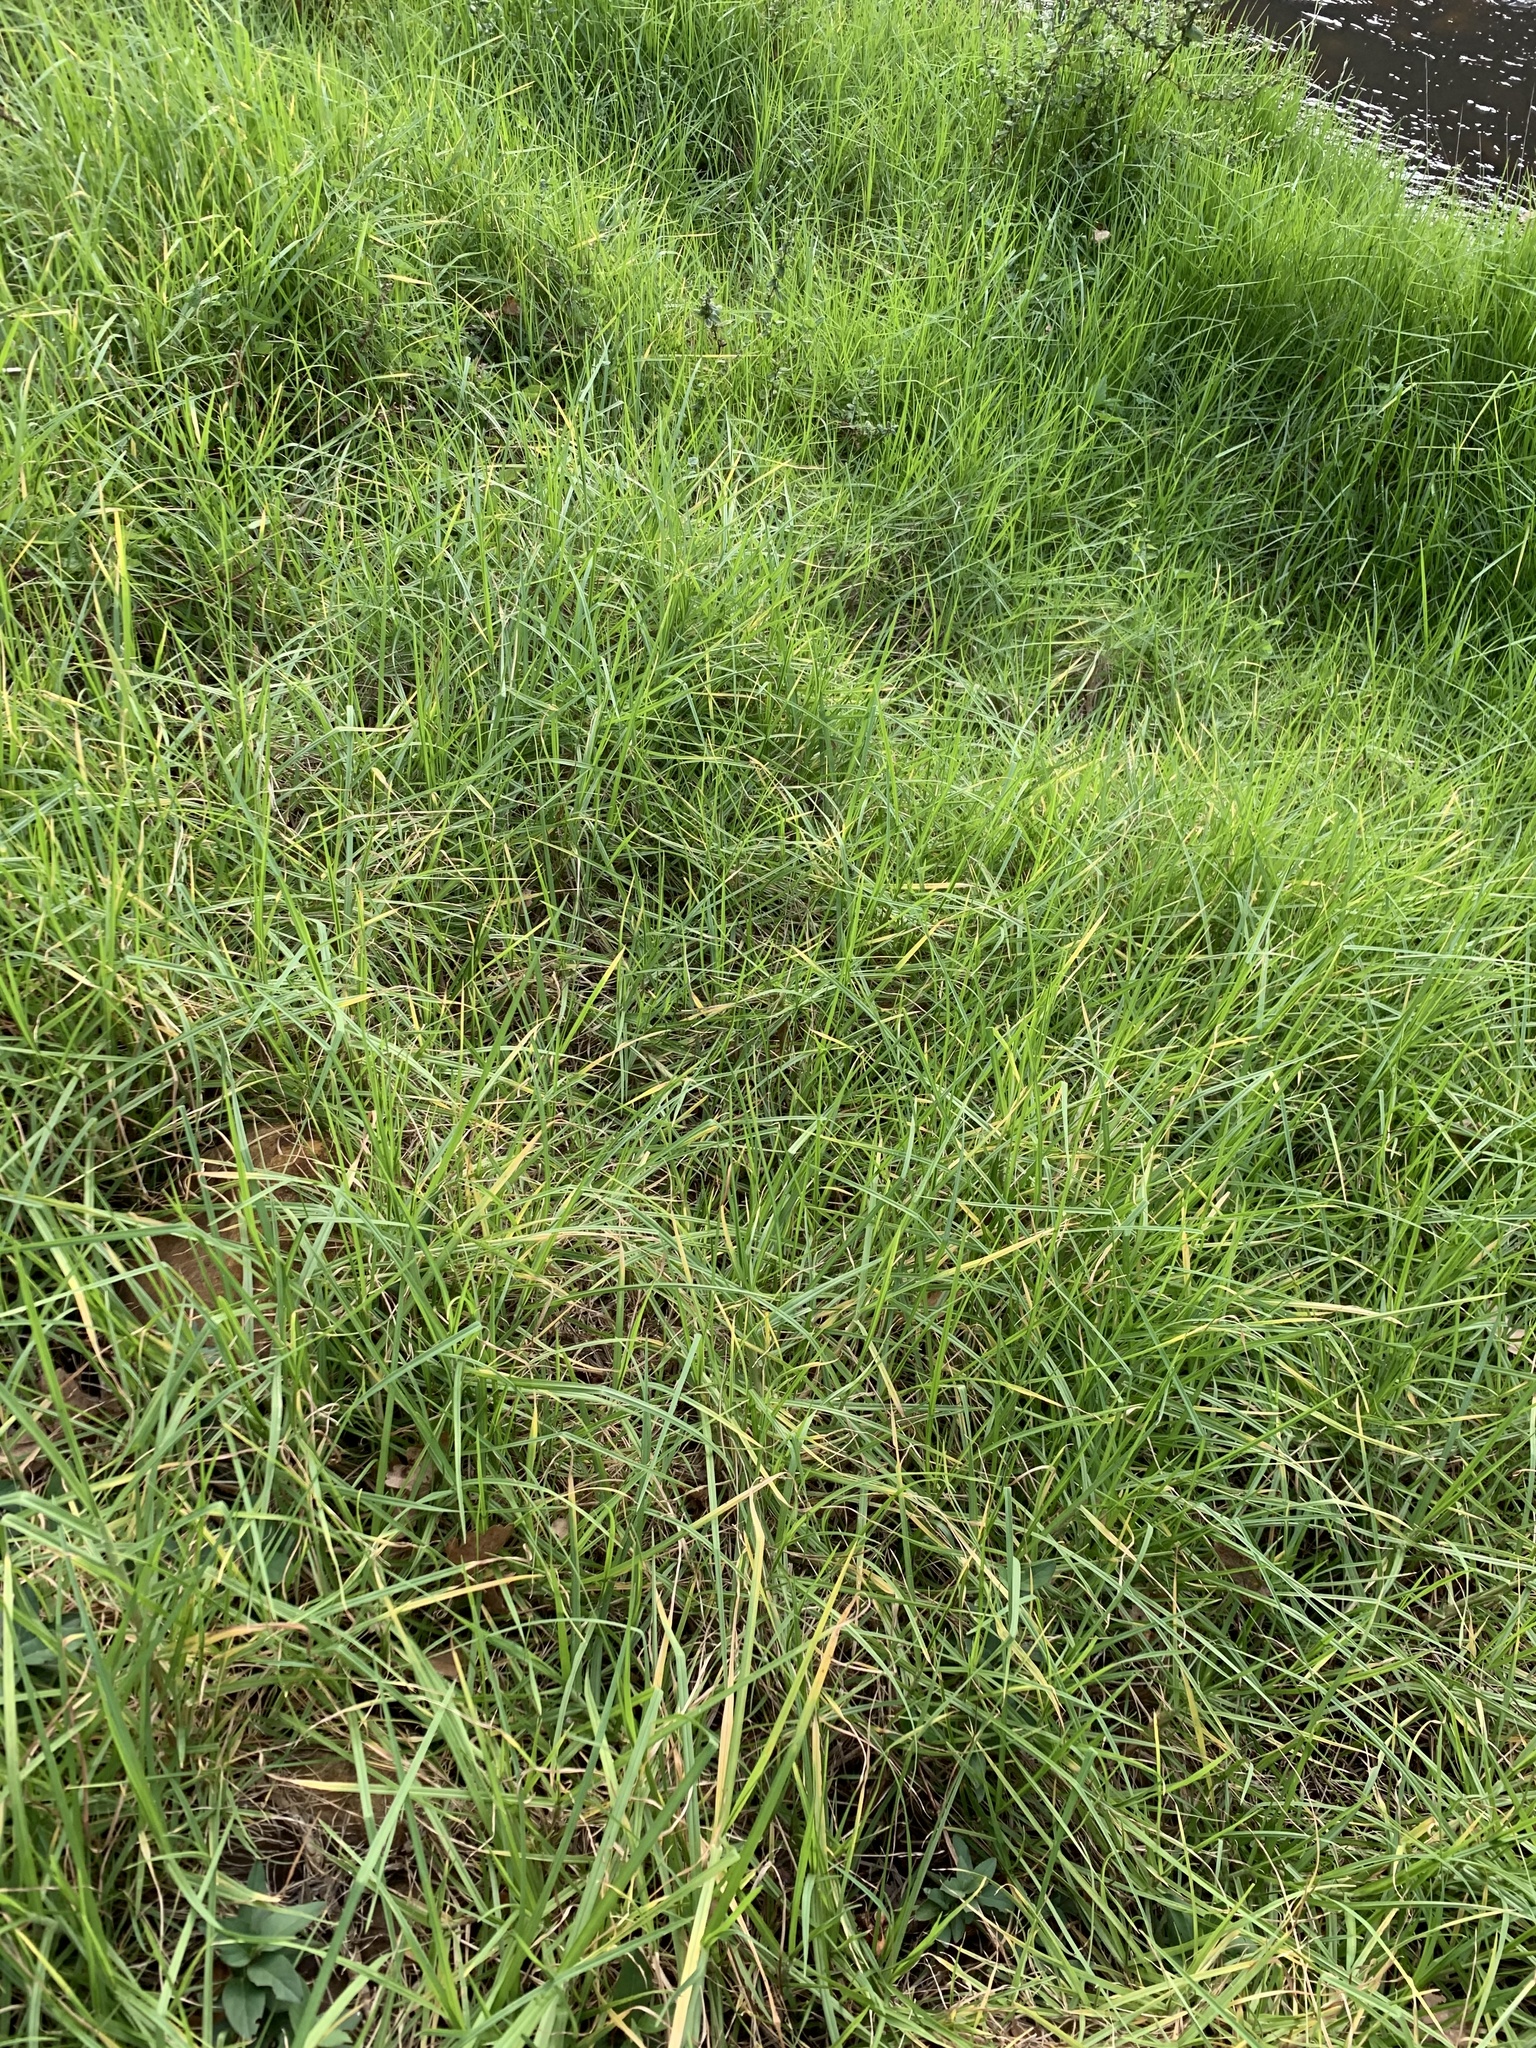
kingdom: Plantae
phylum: Tracheophyta
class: Liliopsida
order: Poales
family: Poaceae
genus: Cenchrus
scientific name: Cenchrus clandestinus
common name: Kikuyugrass
